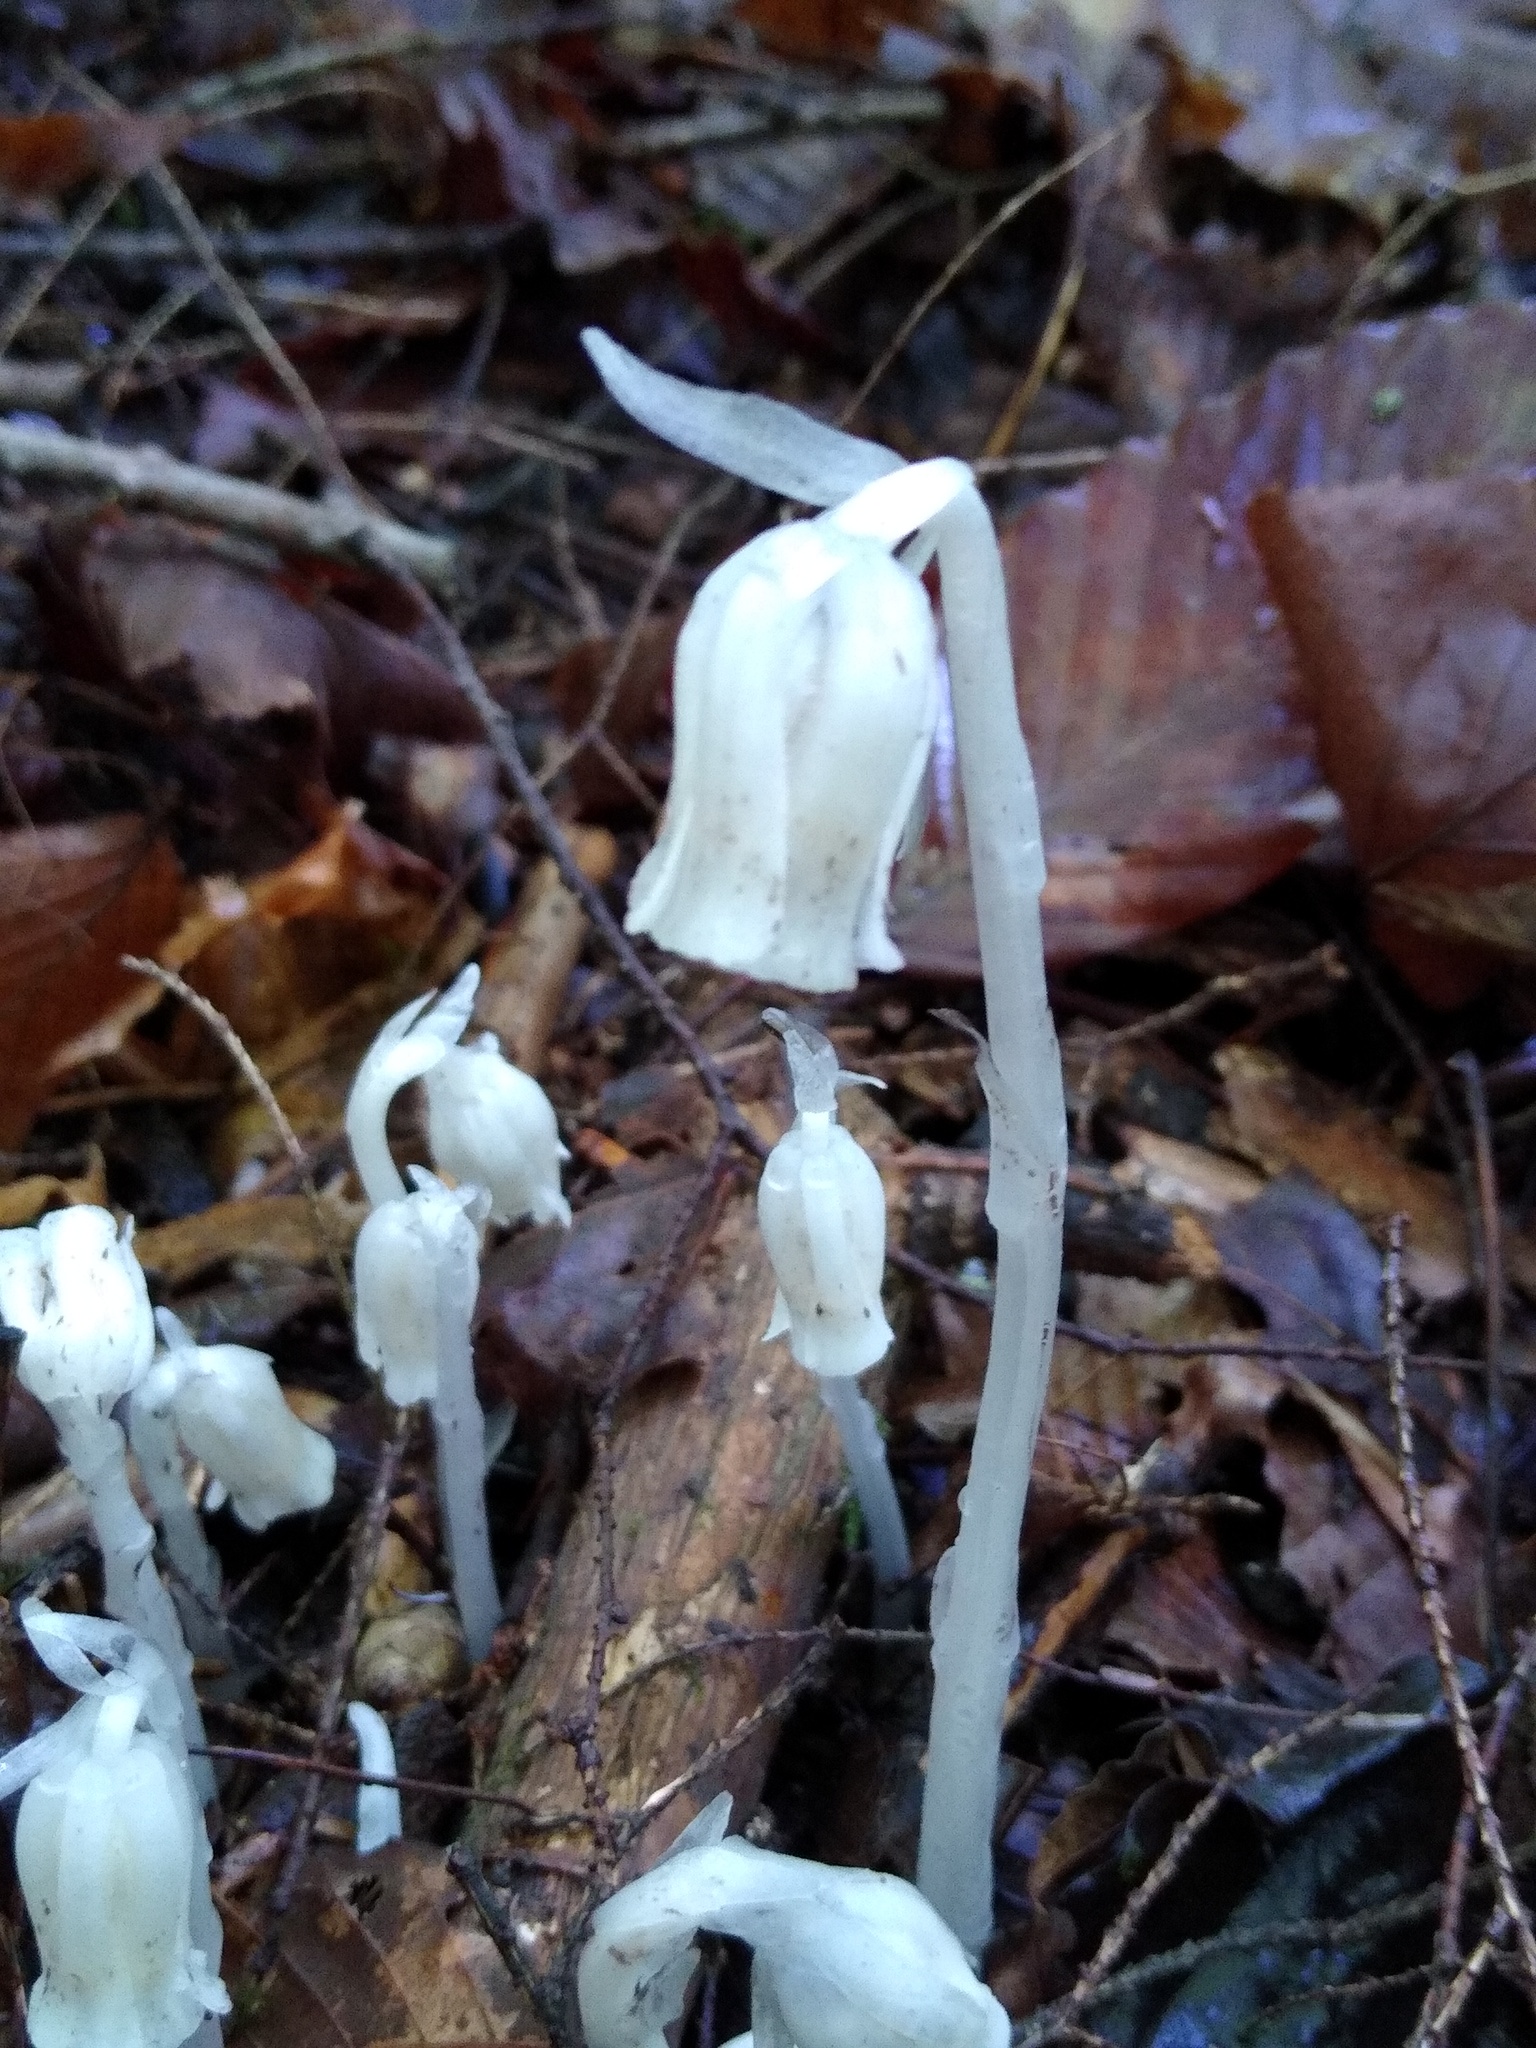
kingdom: Plantae
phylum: Tracheophyta
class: Magnoliopsida
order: Ericales
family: Ericaceae
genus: Monotropa
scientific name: Monotropa uniflora
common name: Convulsion root
